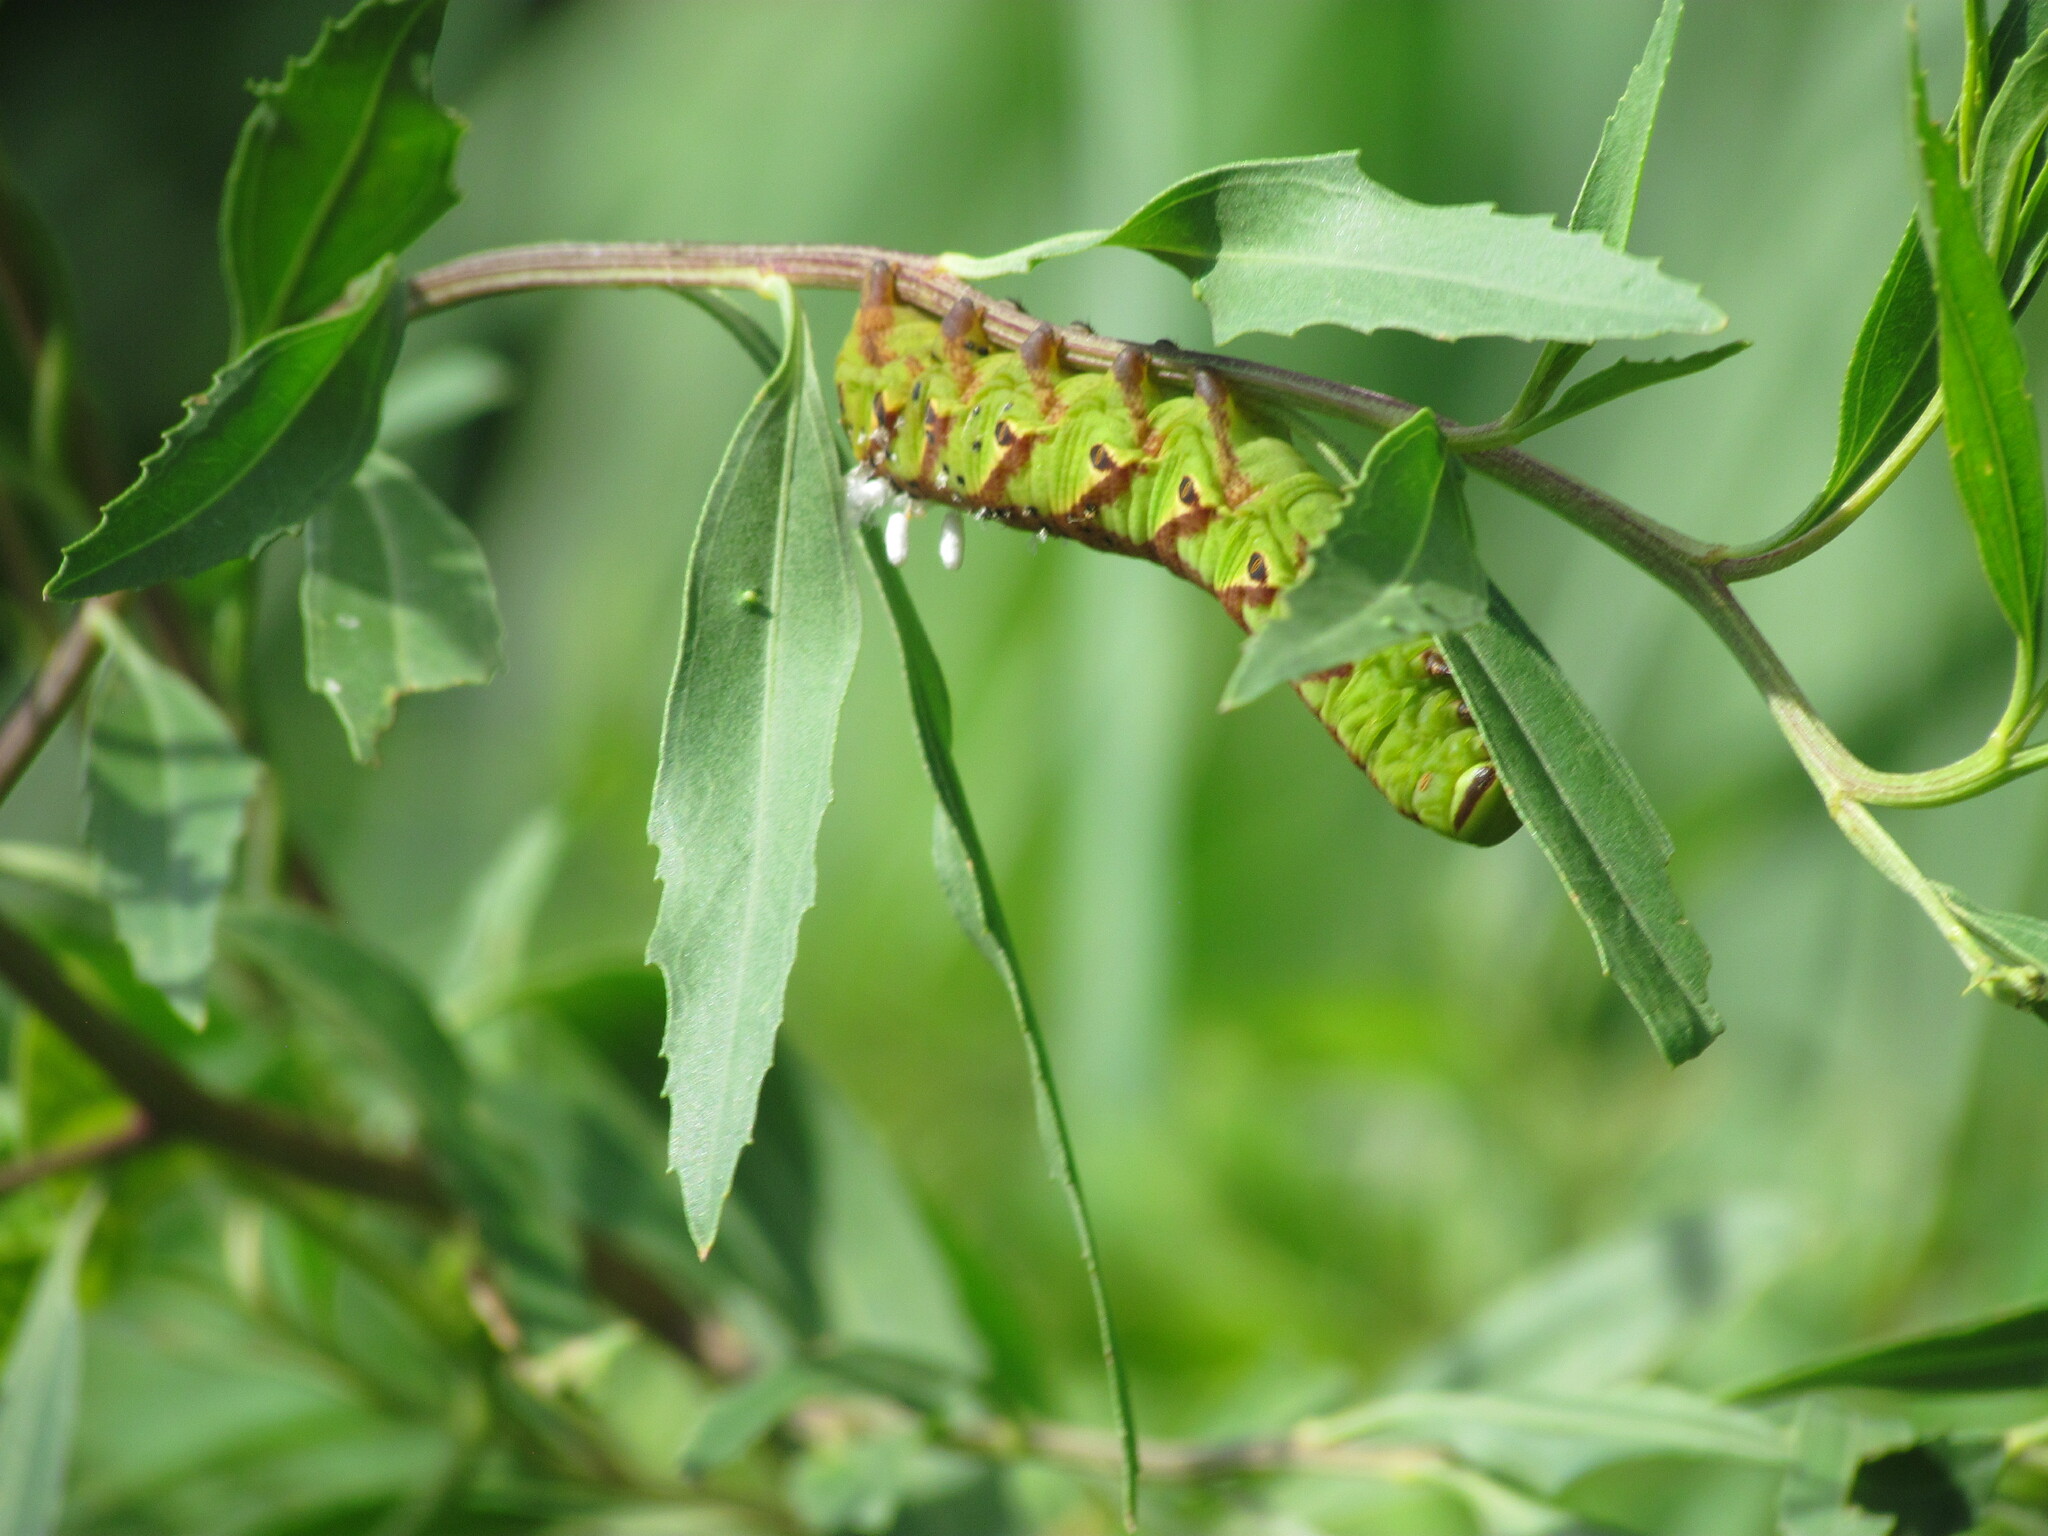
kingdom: Animalia
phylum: Arthropoda
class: Insecta
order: Lepidoptera
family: Sphingidae
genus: Agrius
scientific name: Agrius cingulata
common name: Pink-spotted hawkmoth
